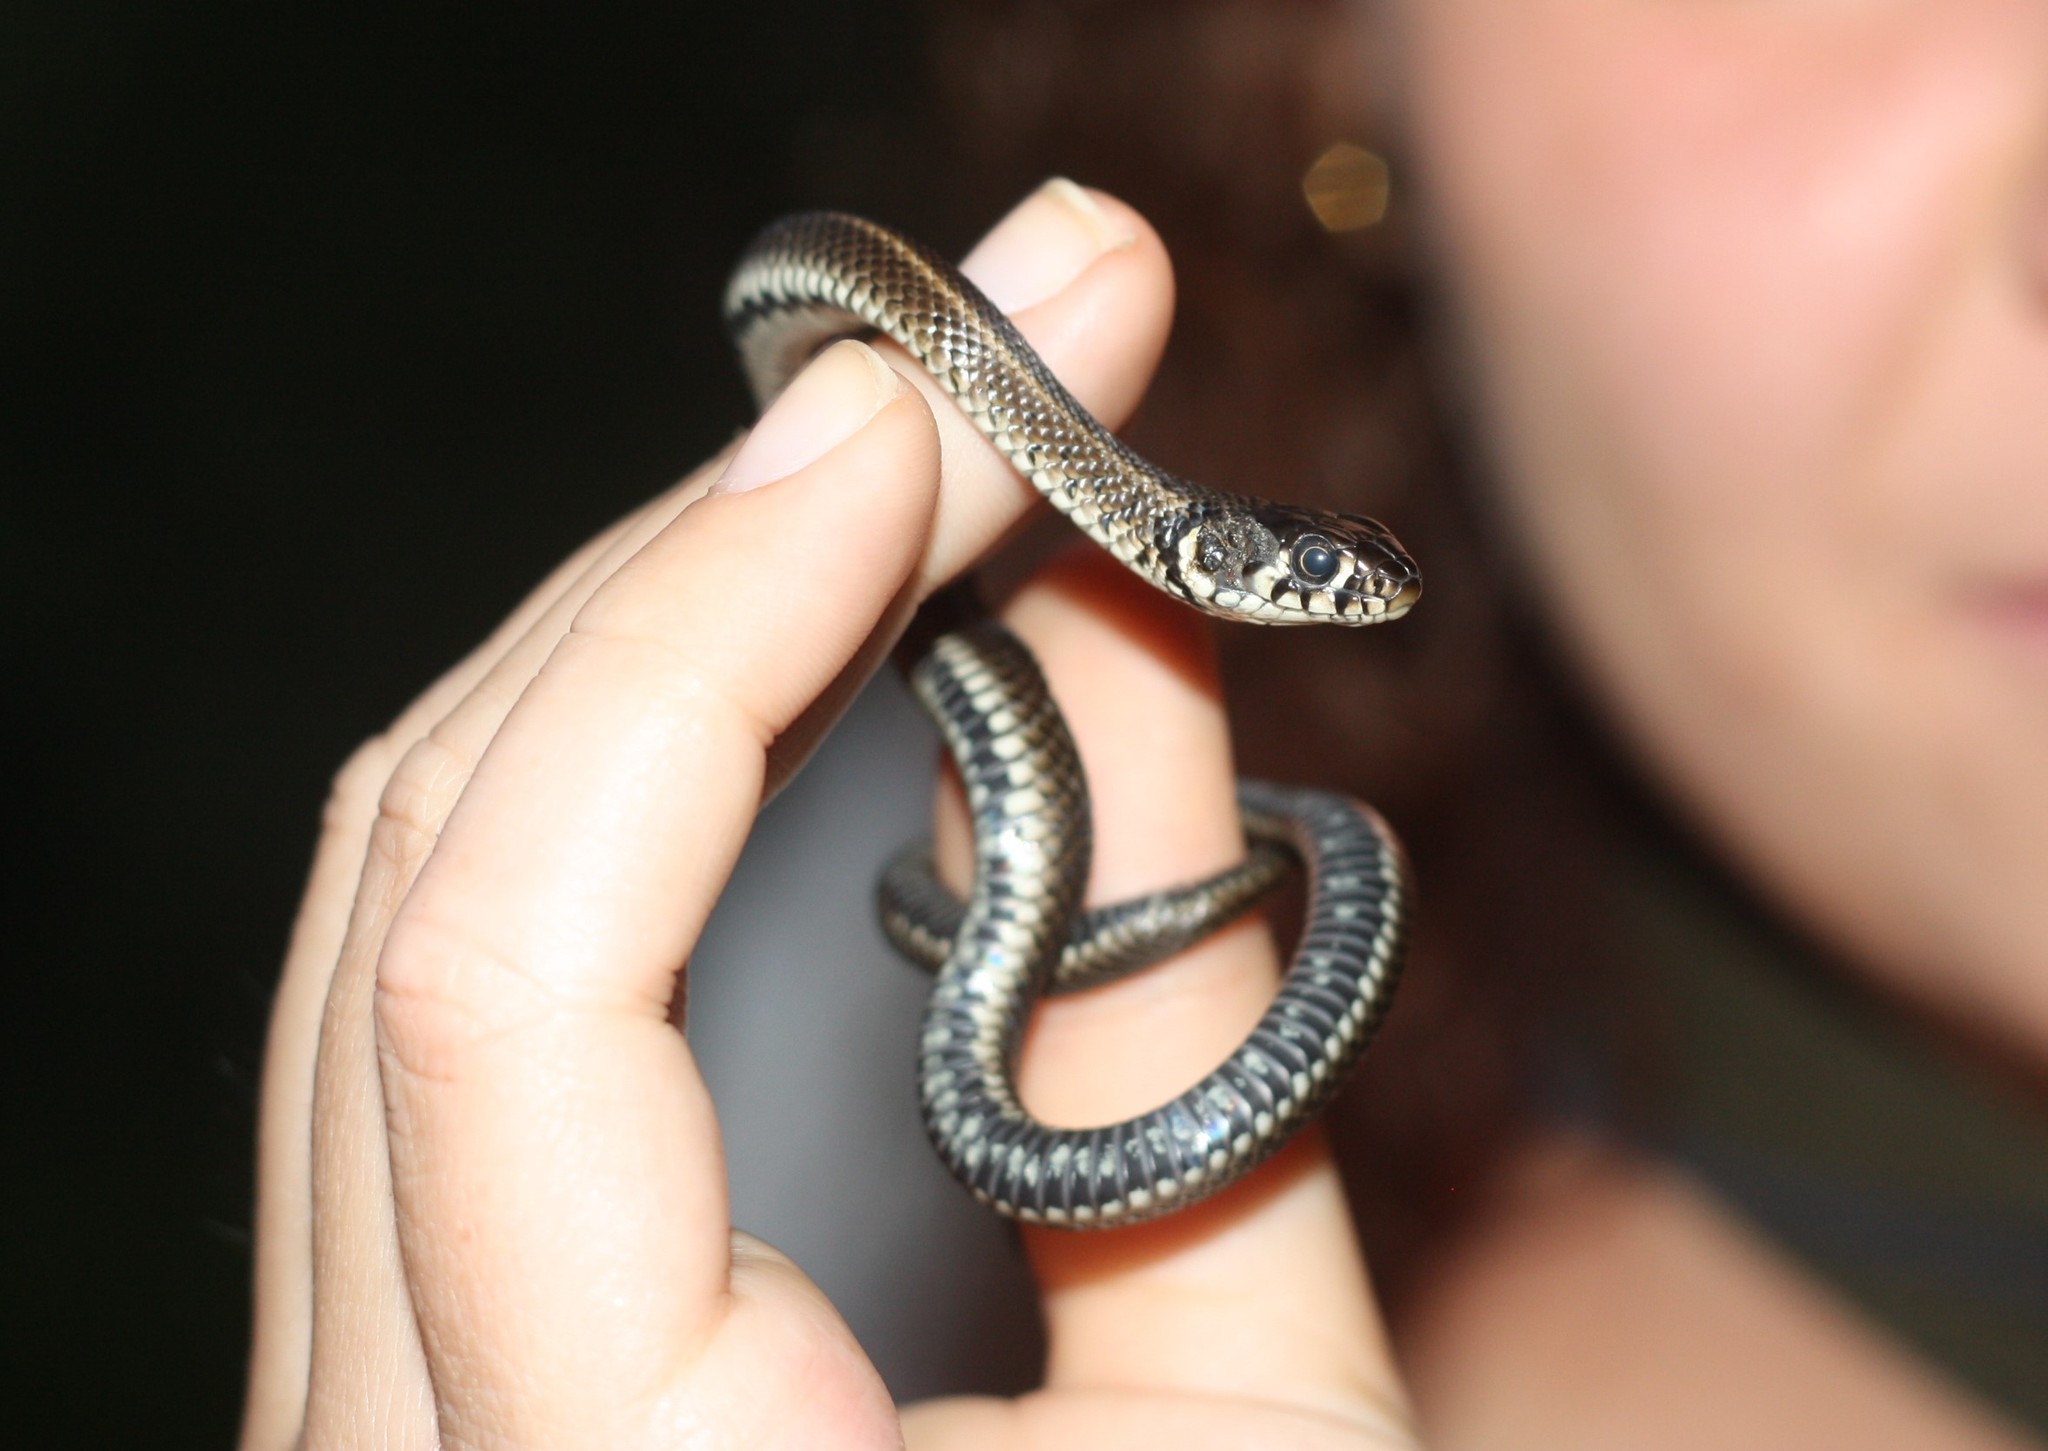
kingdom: Animalia
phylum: Chordata
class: Squamata
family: Colubridae
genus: Natrix
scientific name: Natrix natrix
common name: Grass snake
